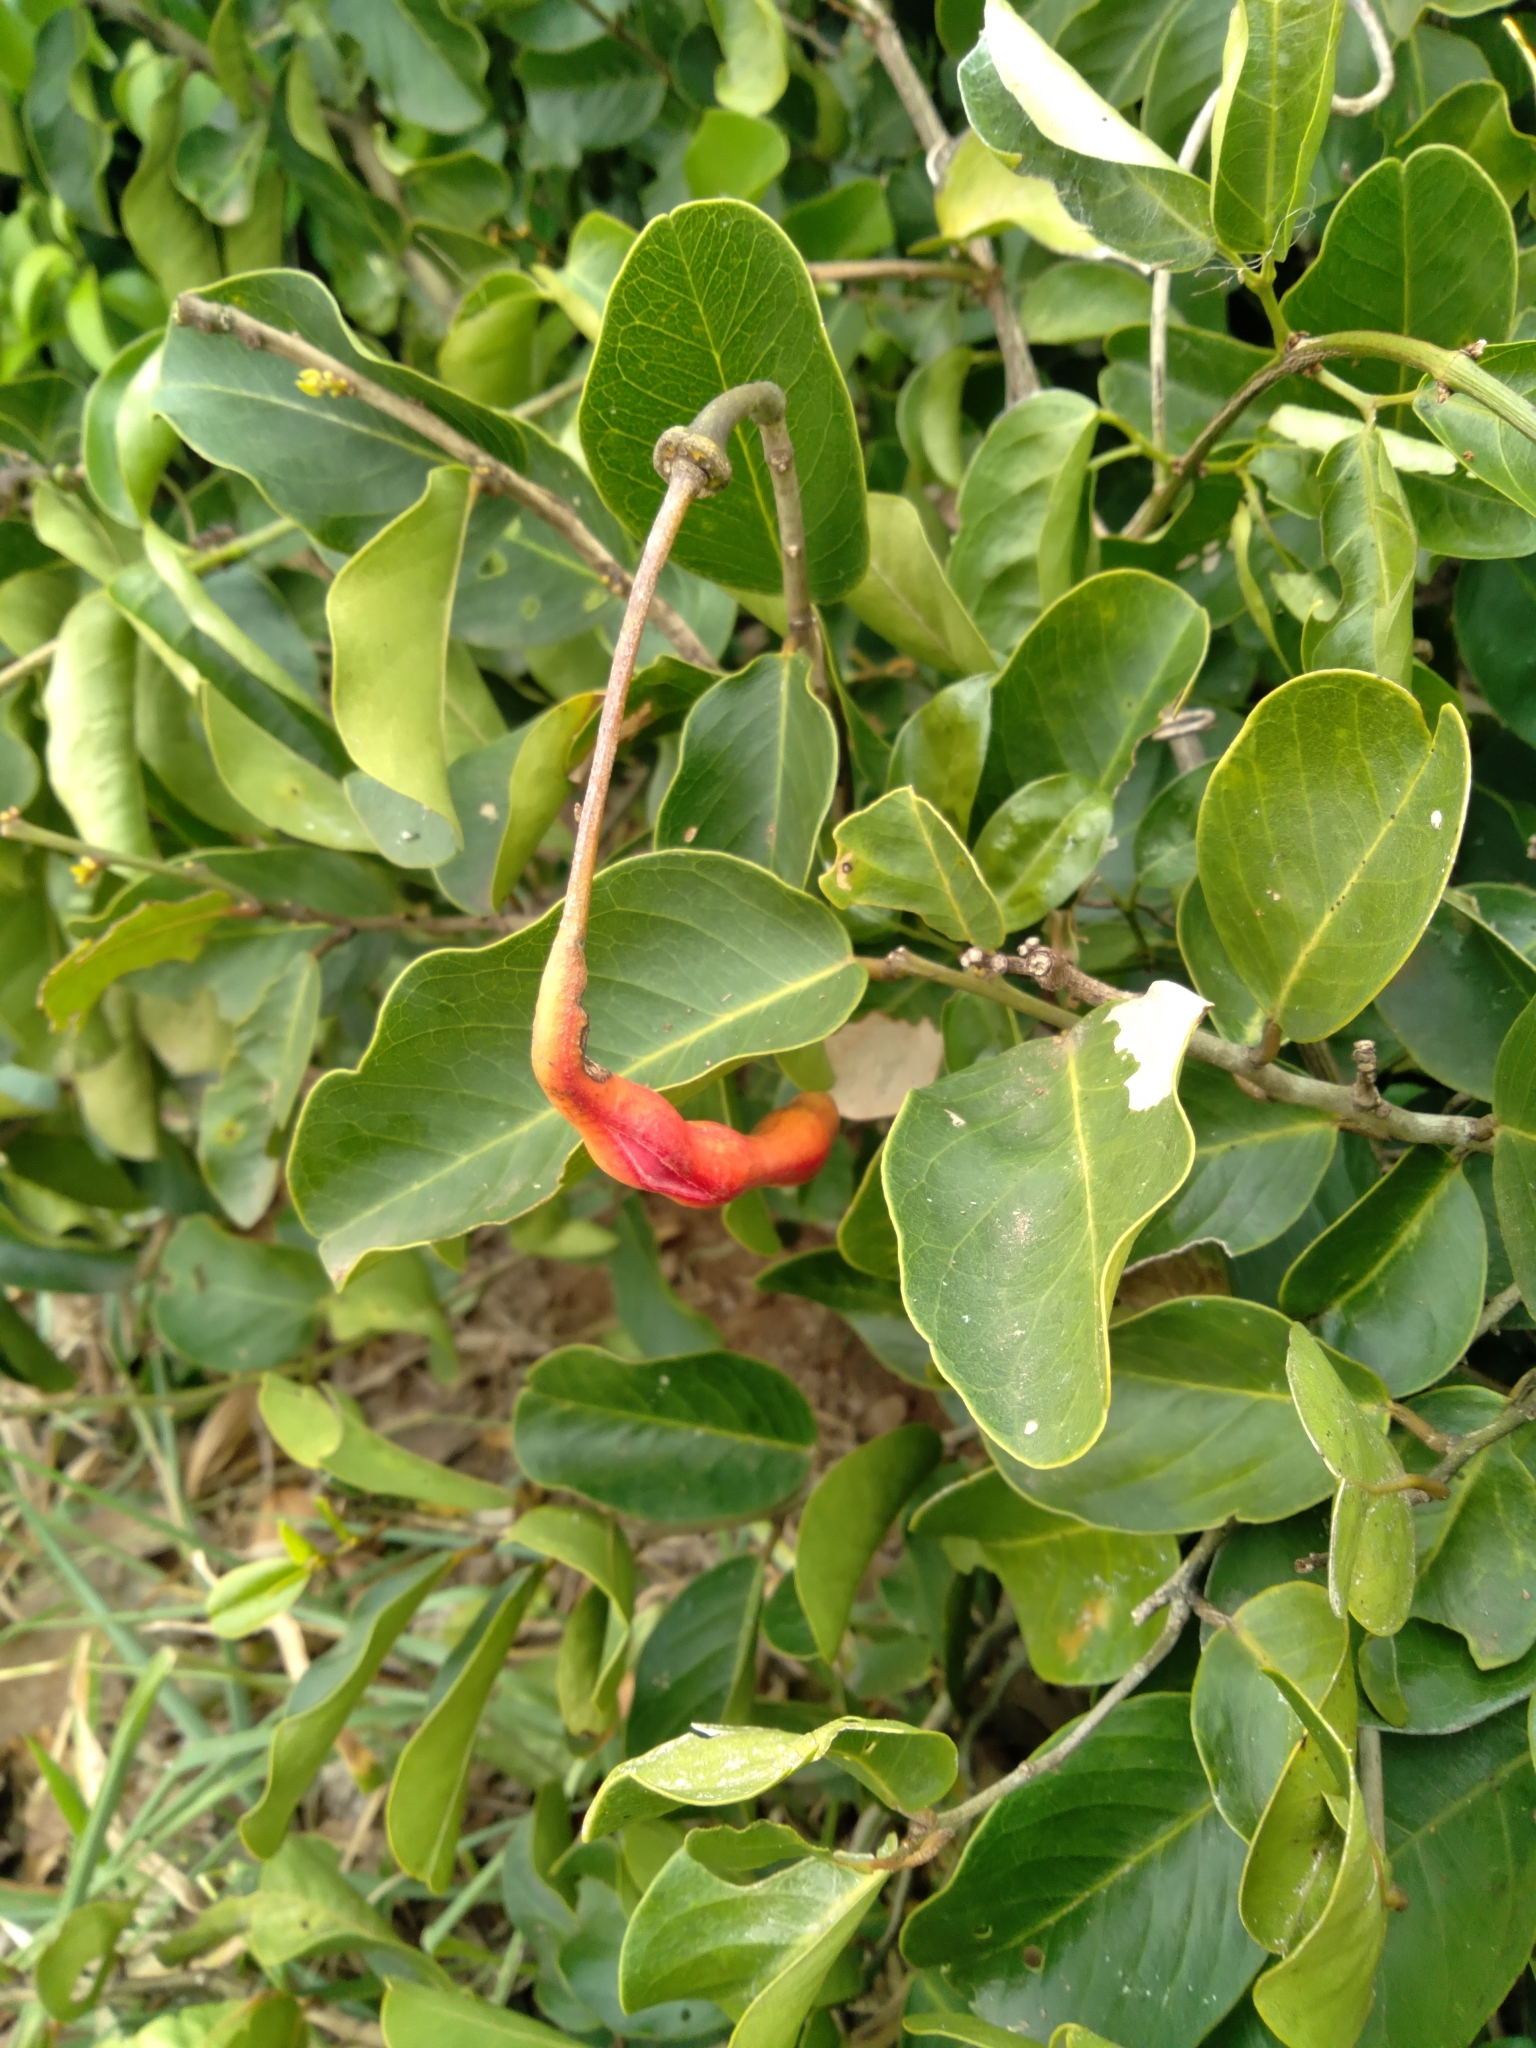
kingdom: Plantae
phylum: Tracheophyta
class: Magnoliopsida
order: Brassicales
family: Capparaceae
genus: Cynophalla
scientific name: Cynophalla flexuosa
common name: Capertree
